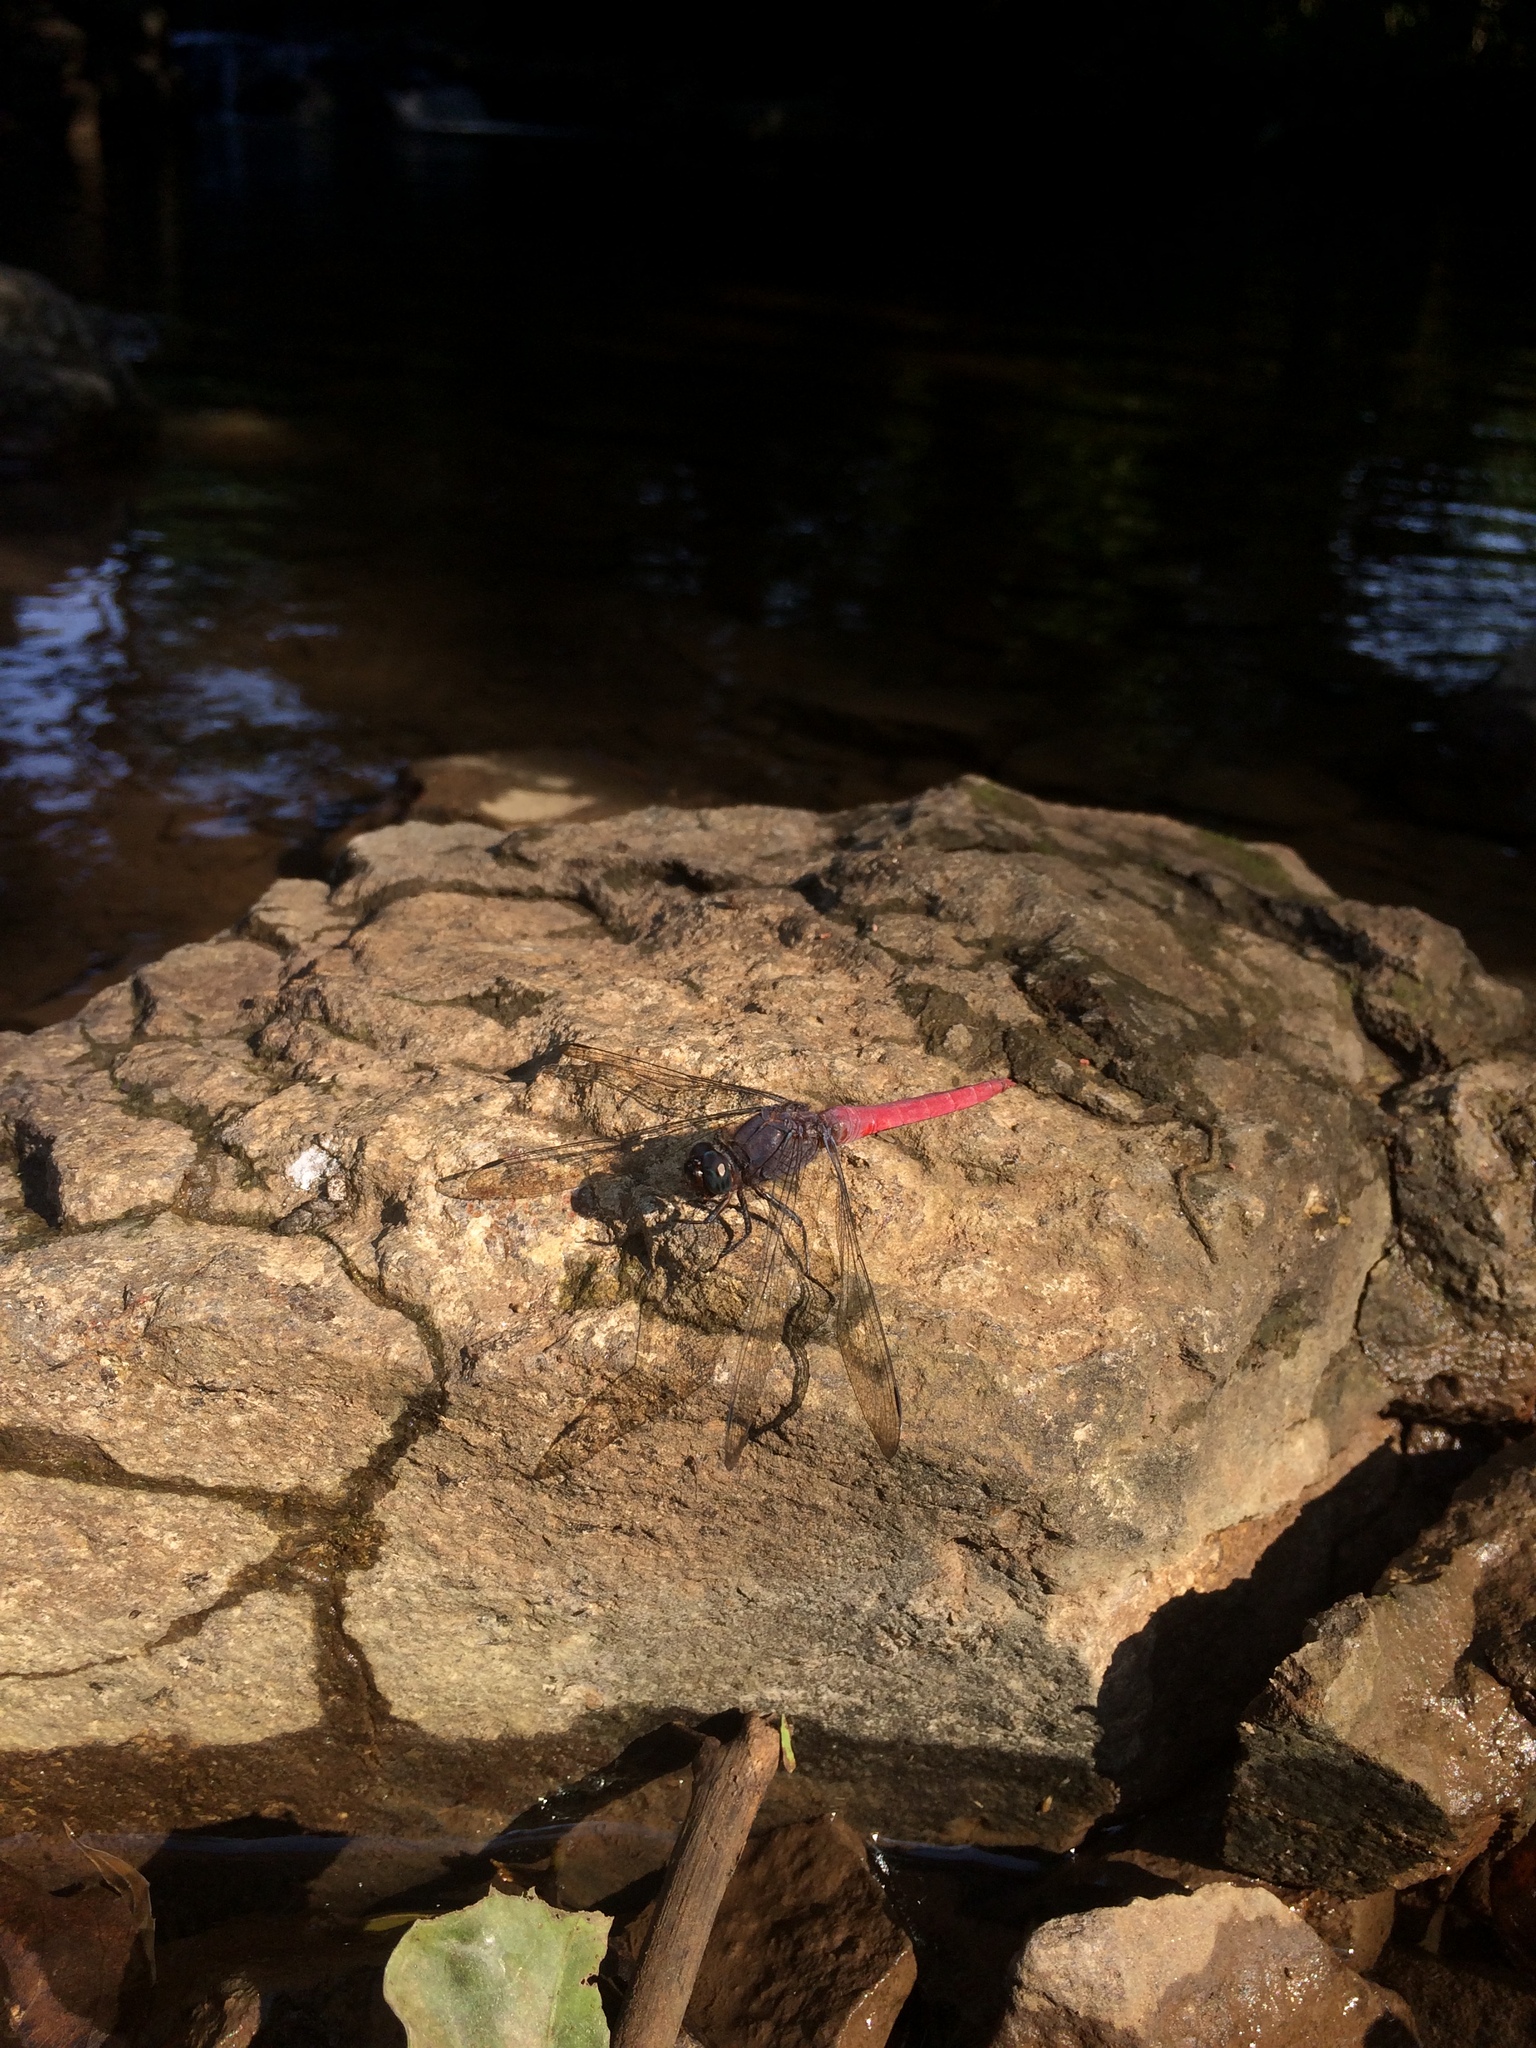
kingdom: Animalia
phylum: Arthropoda
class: Insecta
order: Odonata
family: Libellulidae
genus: Orthetrum
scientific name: Orthetrum pruinosum
